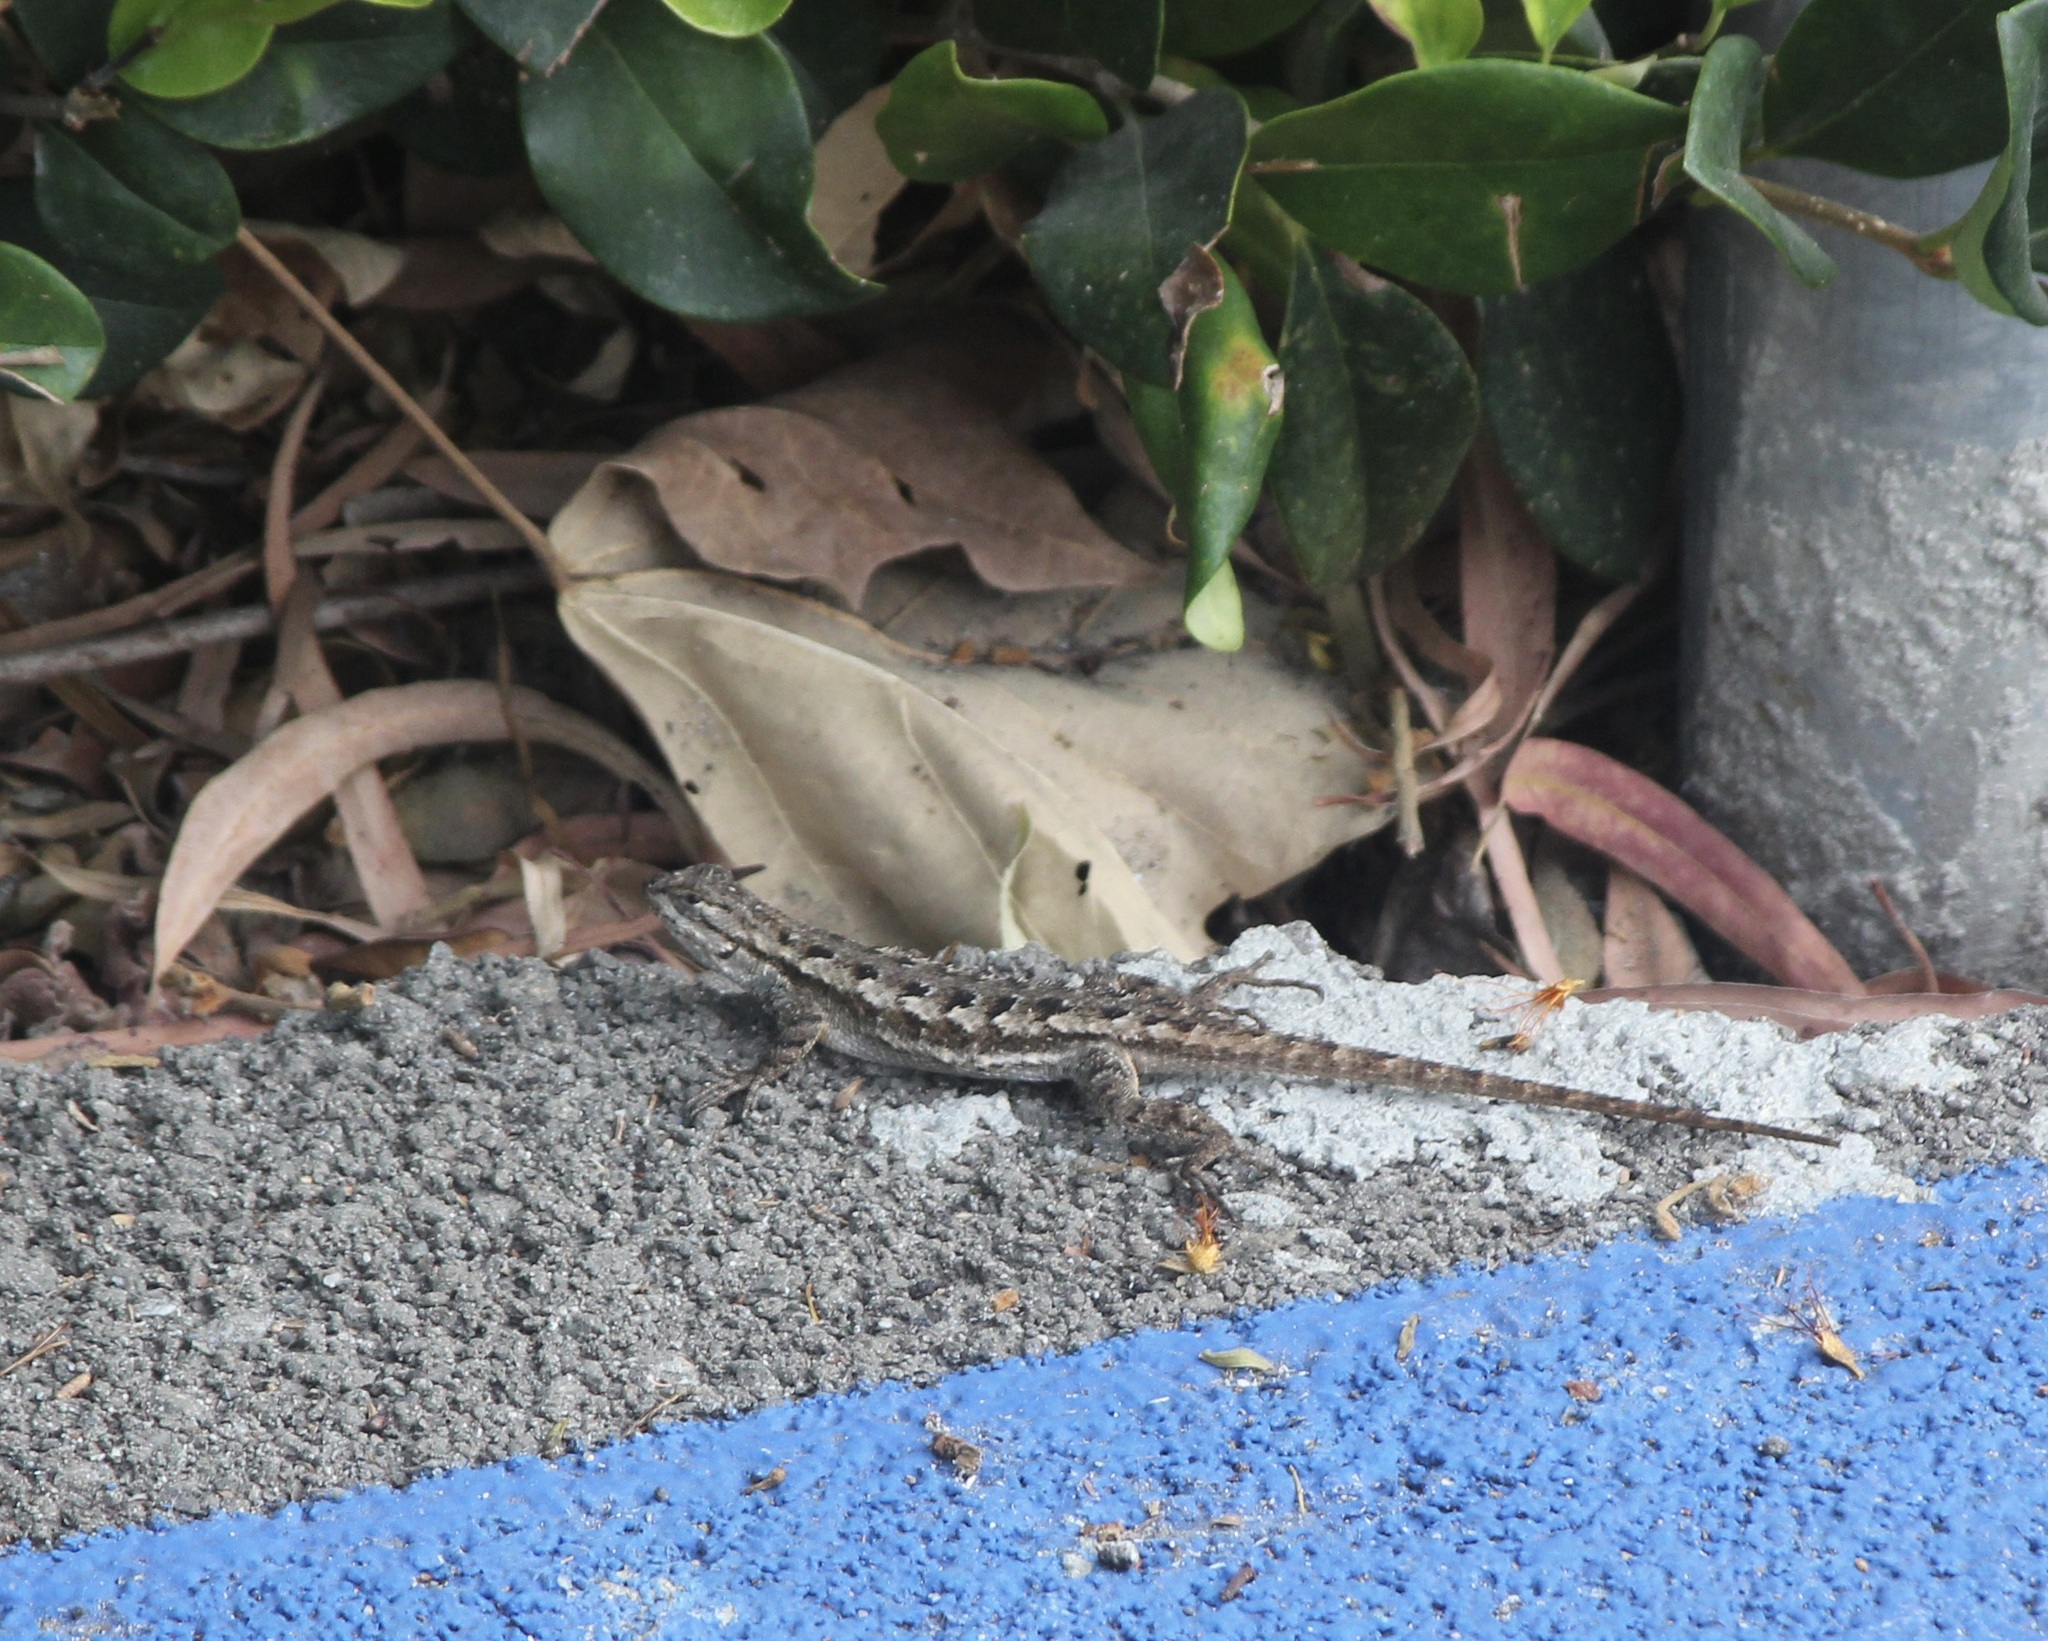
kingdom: Animalia
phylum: Chordata
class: Squamata
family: Phrynosomatidae
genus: Sceloporus
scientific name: Sceloporus occidentalis
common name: Western fence lizard
